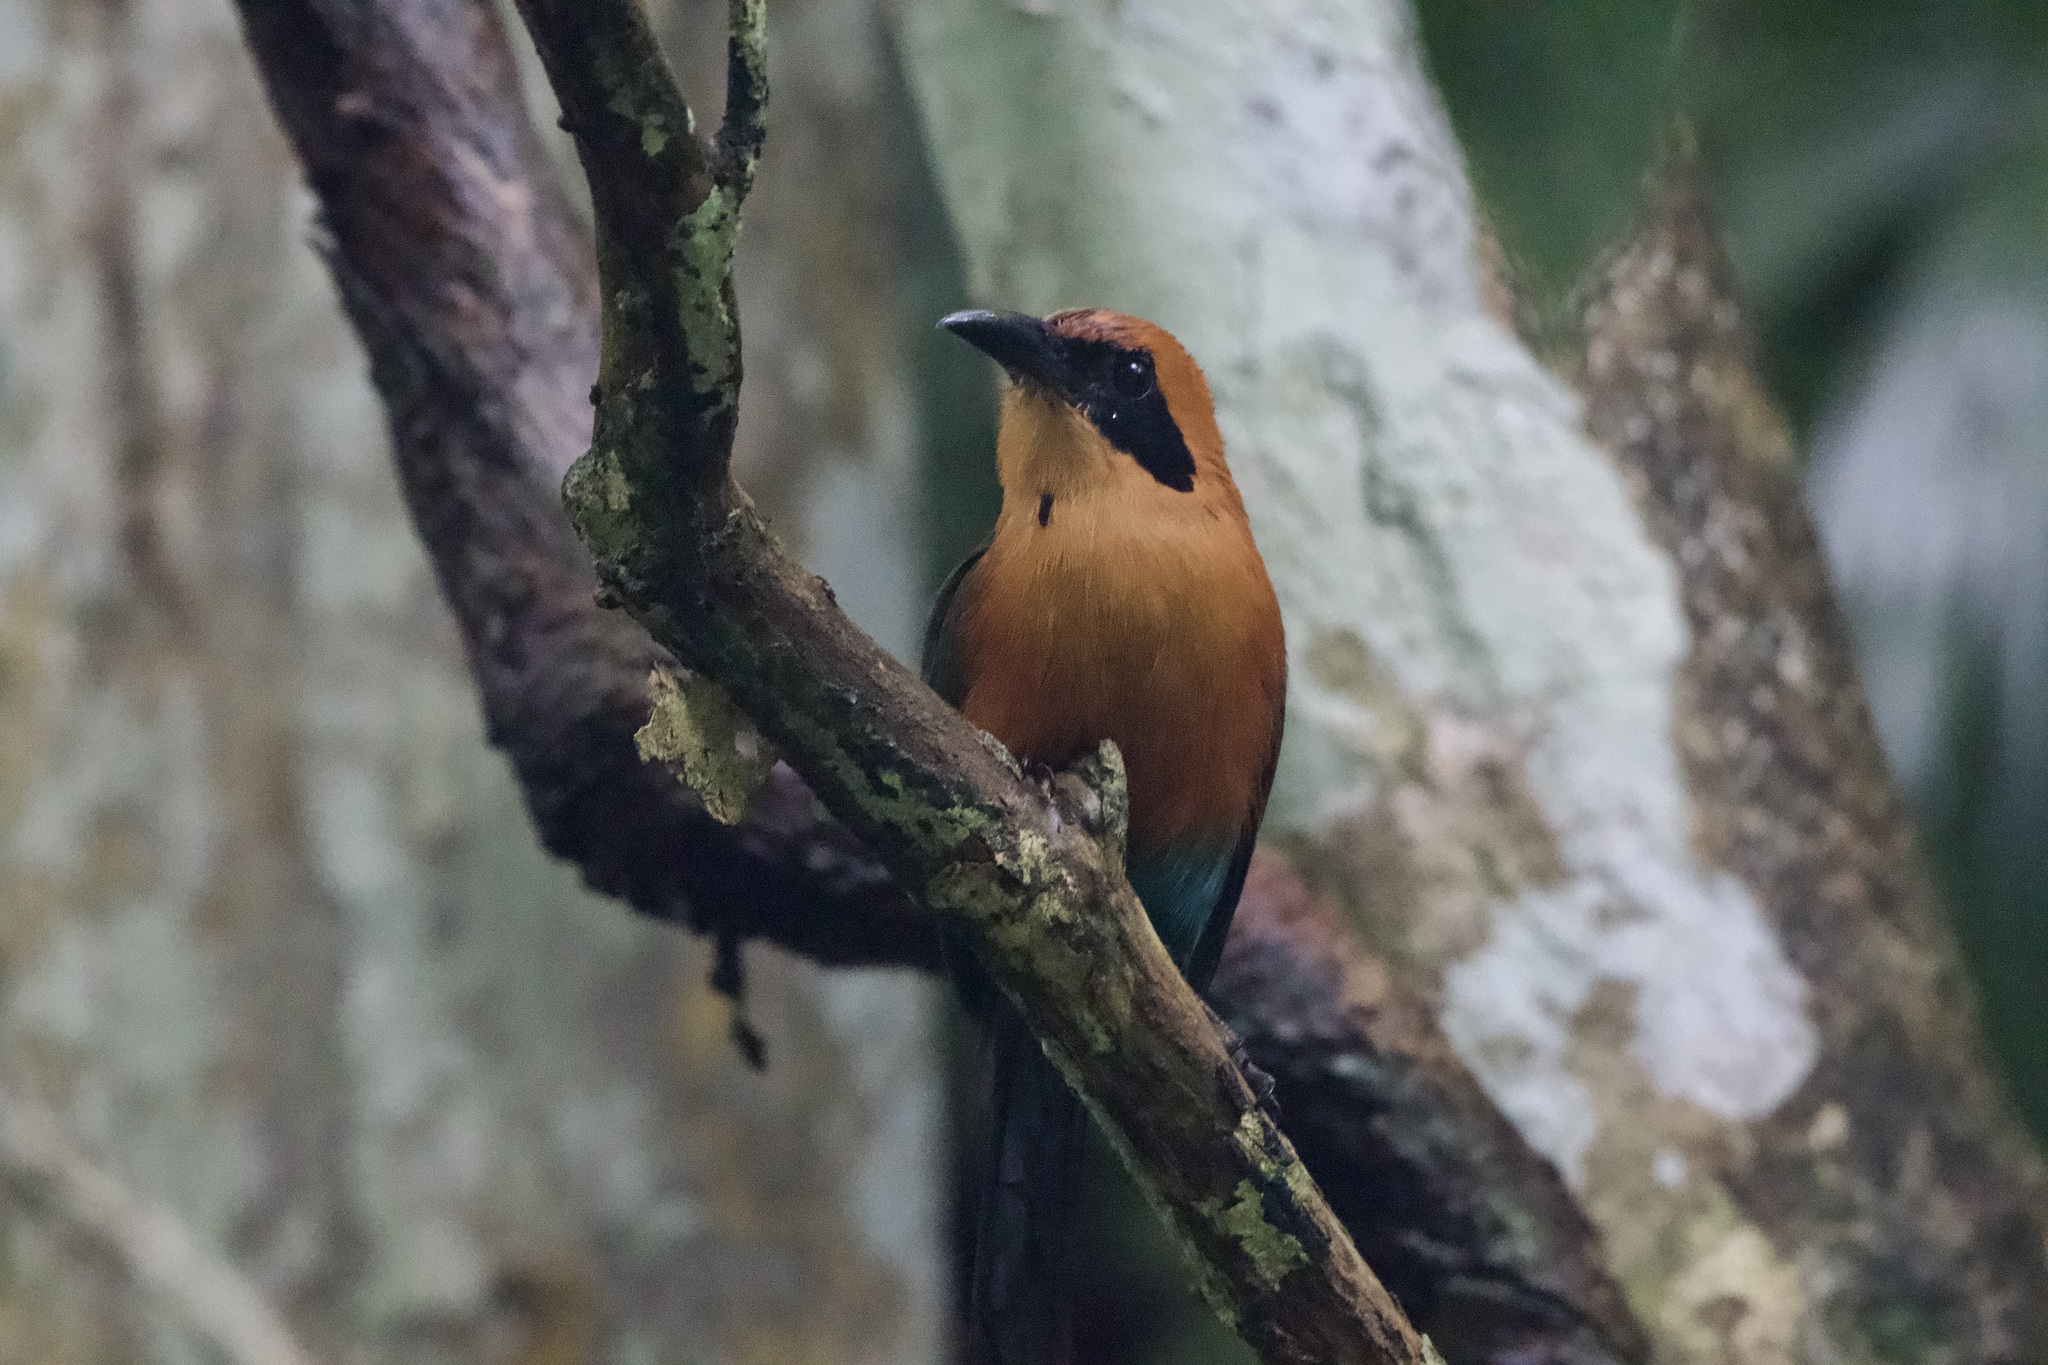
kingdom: Animalia
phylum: Chordata
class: Aves
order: Coraciiformes
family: Momotidae
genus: Baryphthengus
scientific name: Baryphthengus martii
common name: Rufous motmot
